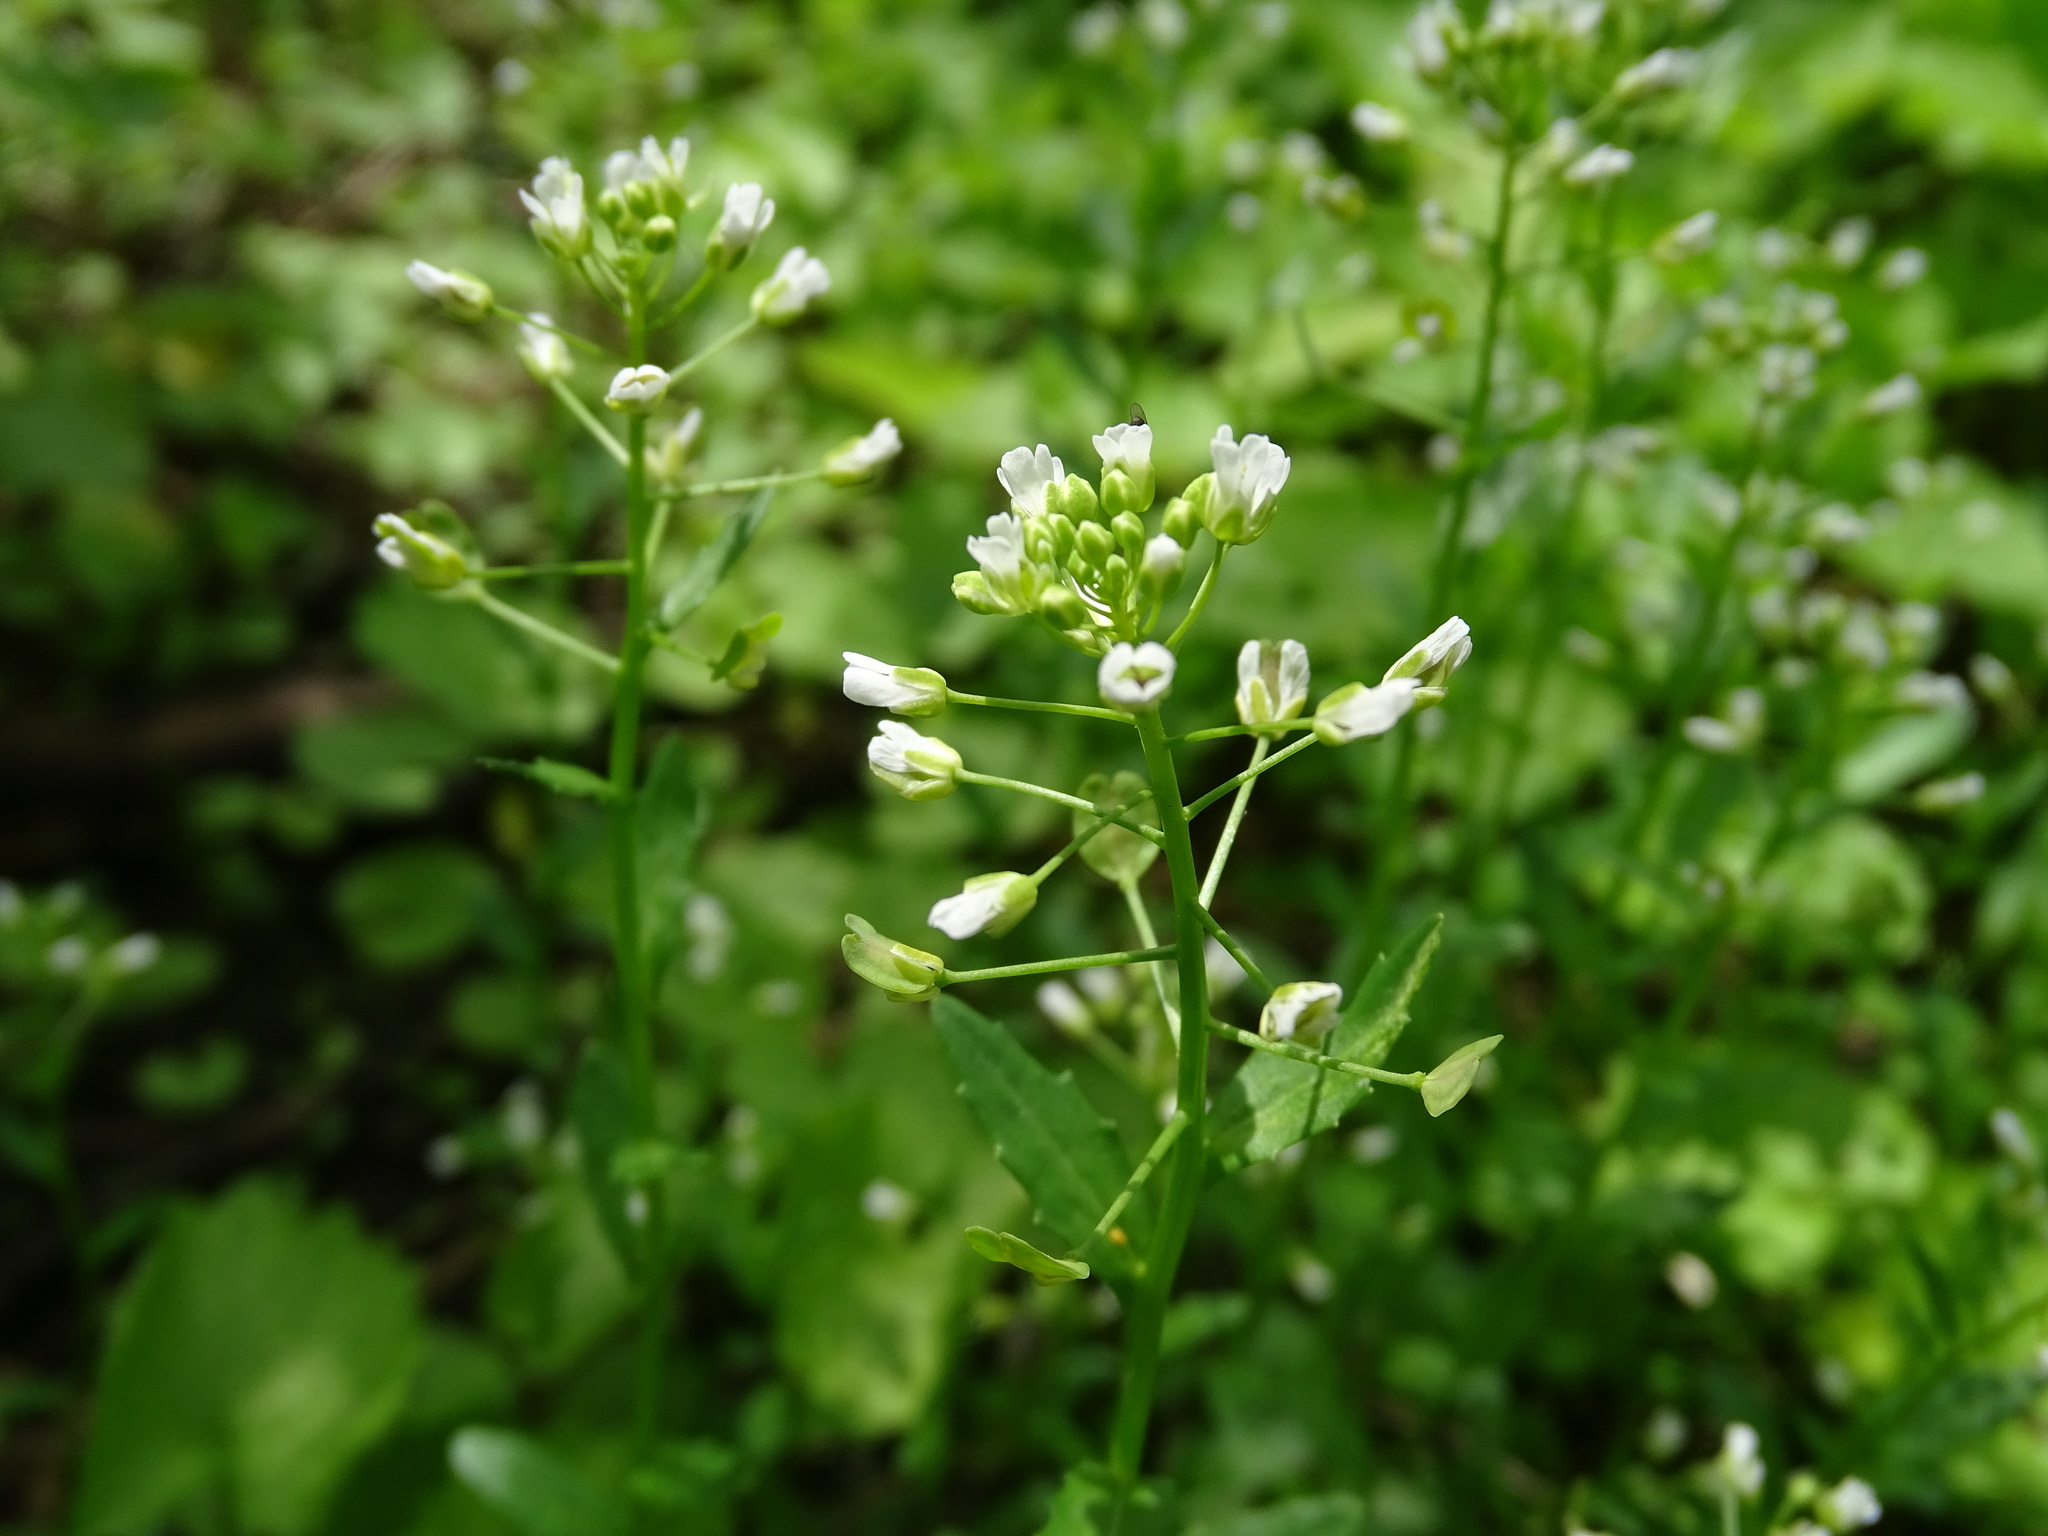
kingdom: Plantae
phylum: Tracheophyta
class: Magnoliopsida
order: Brassicales
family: Brassicaceae
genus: Thlaspi
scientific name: Thlaspi arvense
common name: Field pennycress
